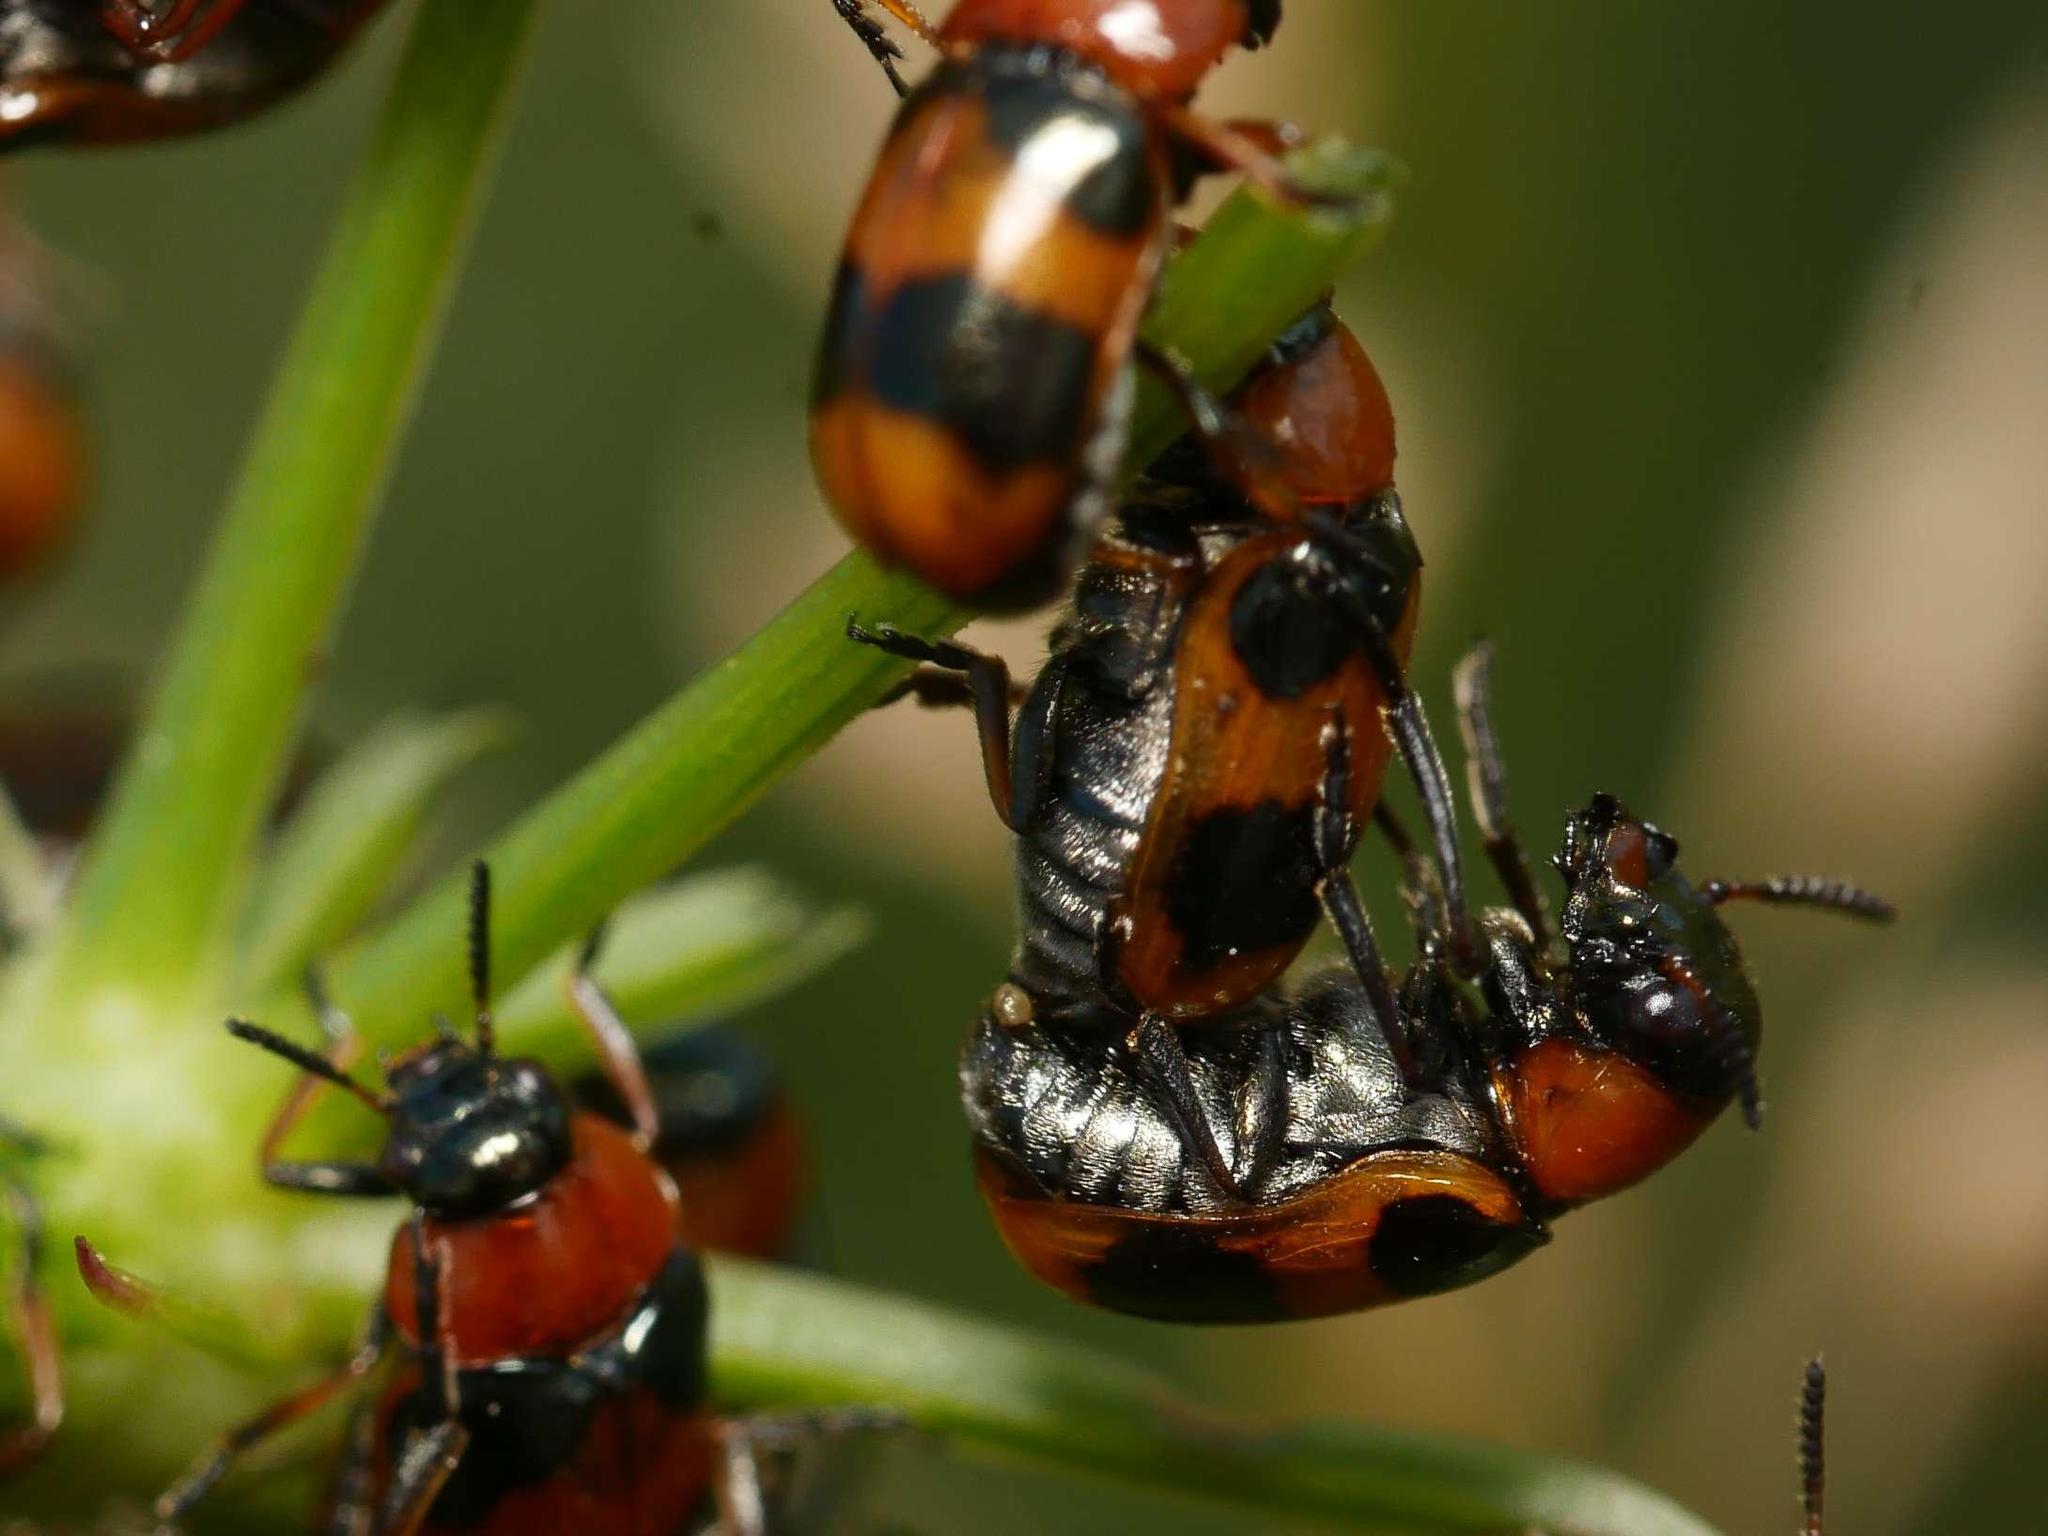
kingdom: Animalia
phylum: Arthropoda
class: Insecta
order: Coleoptera
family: Chrysomelidae
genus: Coptocephala
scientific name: Coptocephala unifasciata
